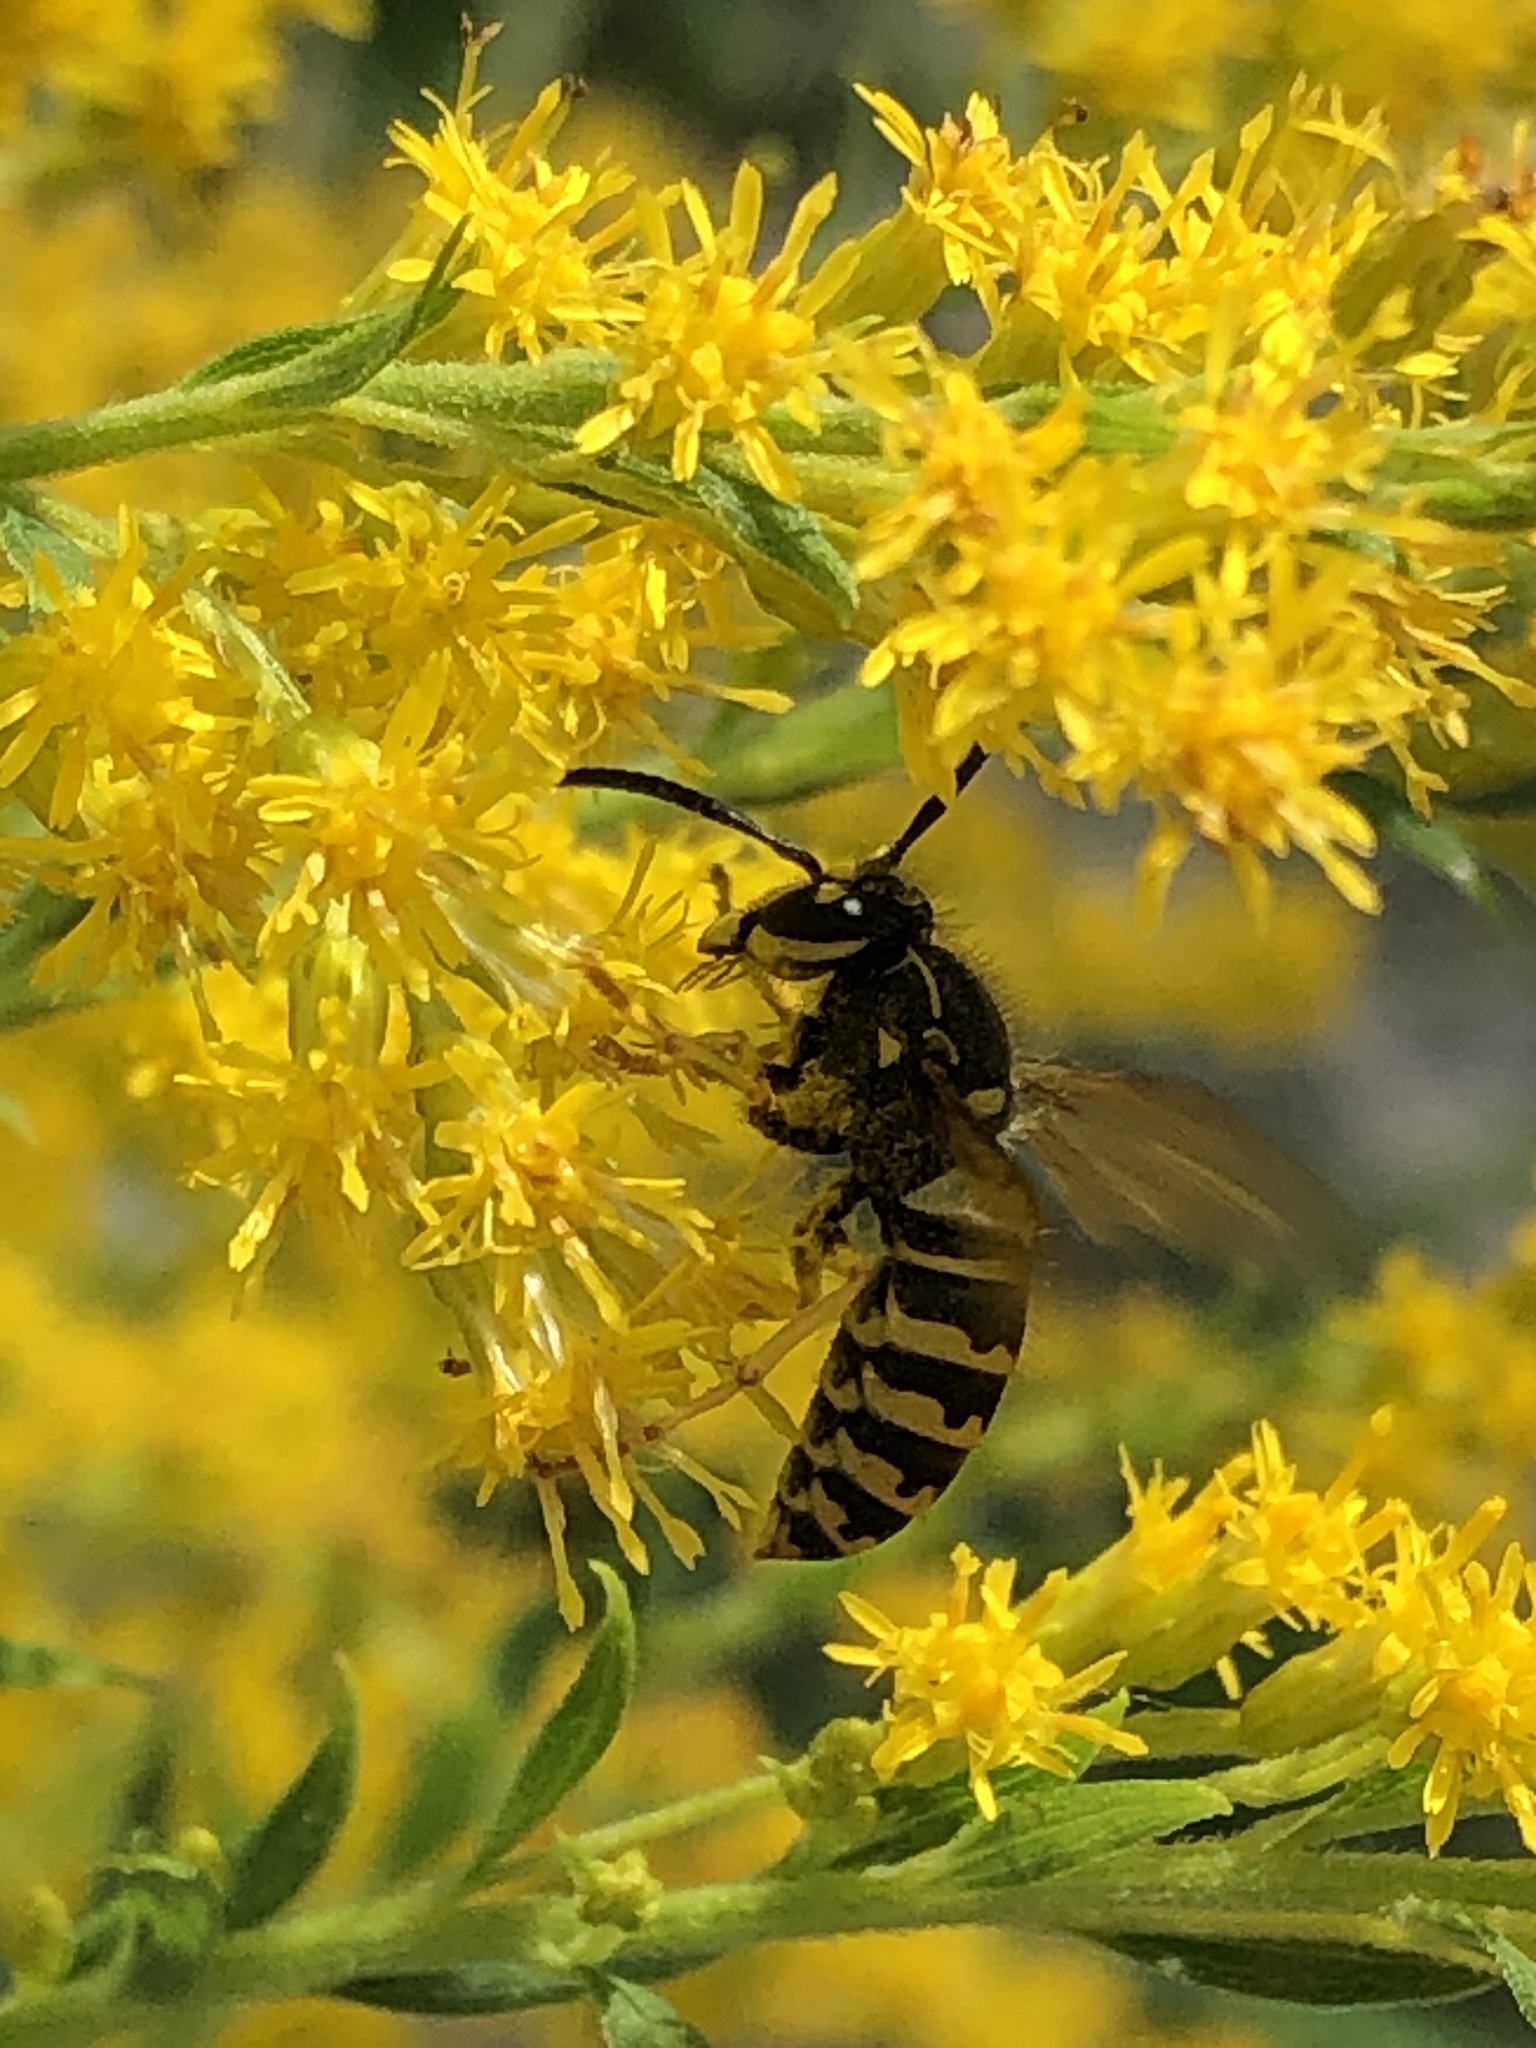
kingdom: Animalia
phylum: Arthropoda
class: Insecta
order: Hymenoptera
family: Vespidae
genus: Dolichovespula
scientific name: Dolichovespula arenaria
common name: Aerial yellowjacket
